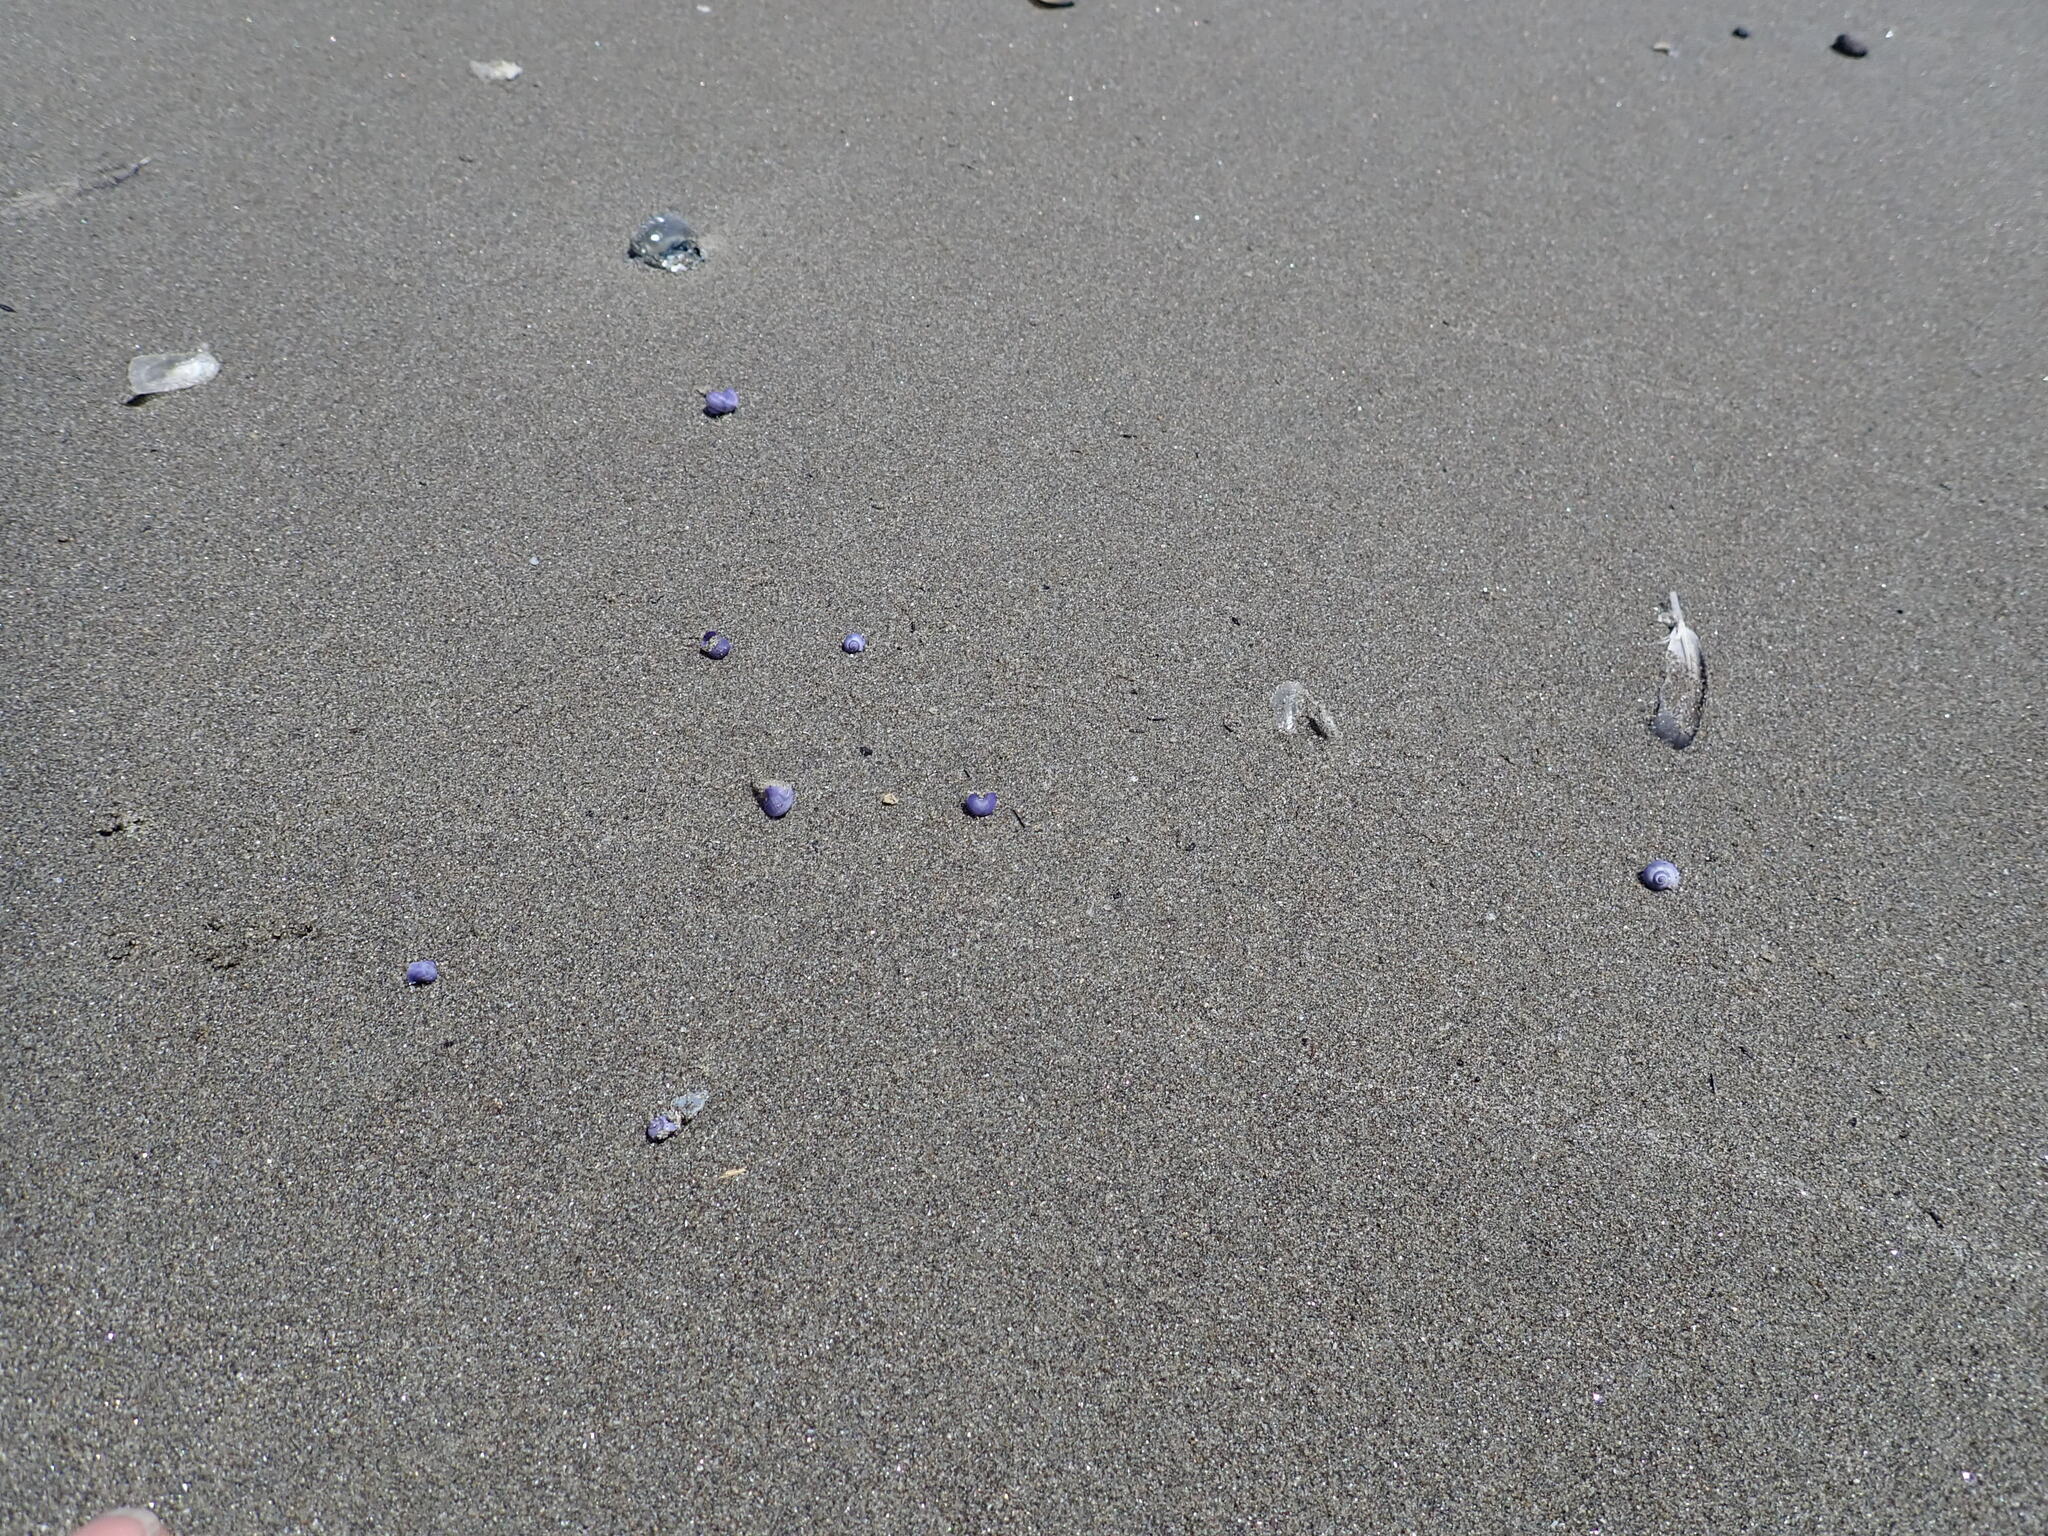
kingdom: Animalia
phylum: Mollusca
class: Gastropoda
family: Epitoniidae
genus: Janthina
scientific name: Janthina exigua
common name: Dwarf janthina
